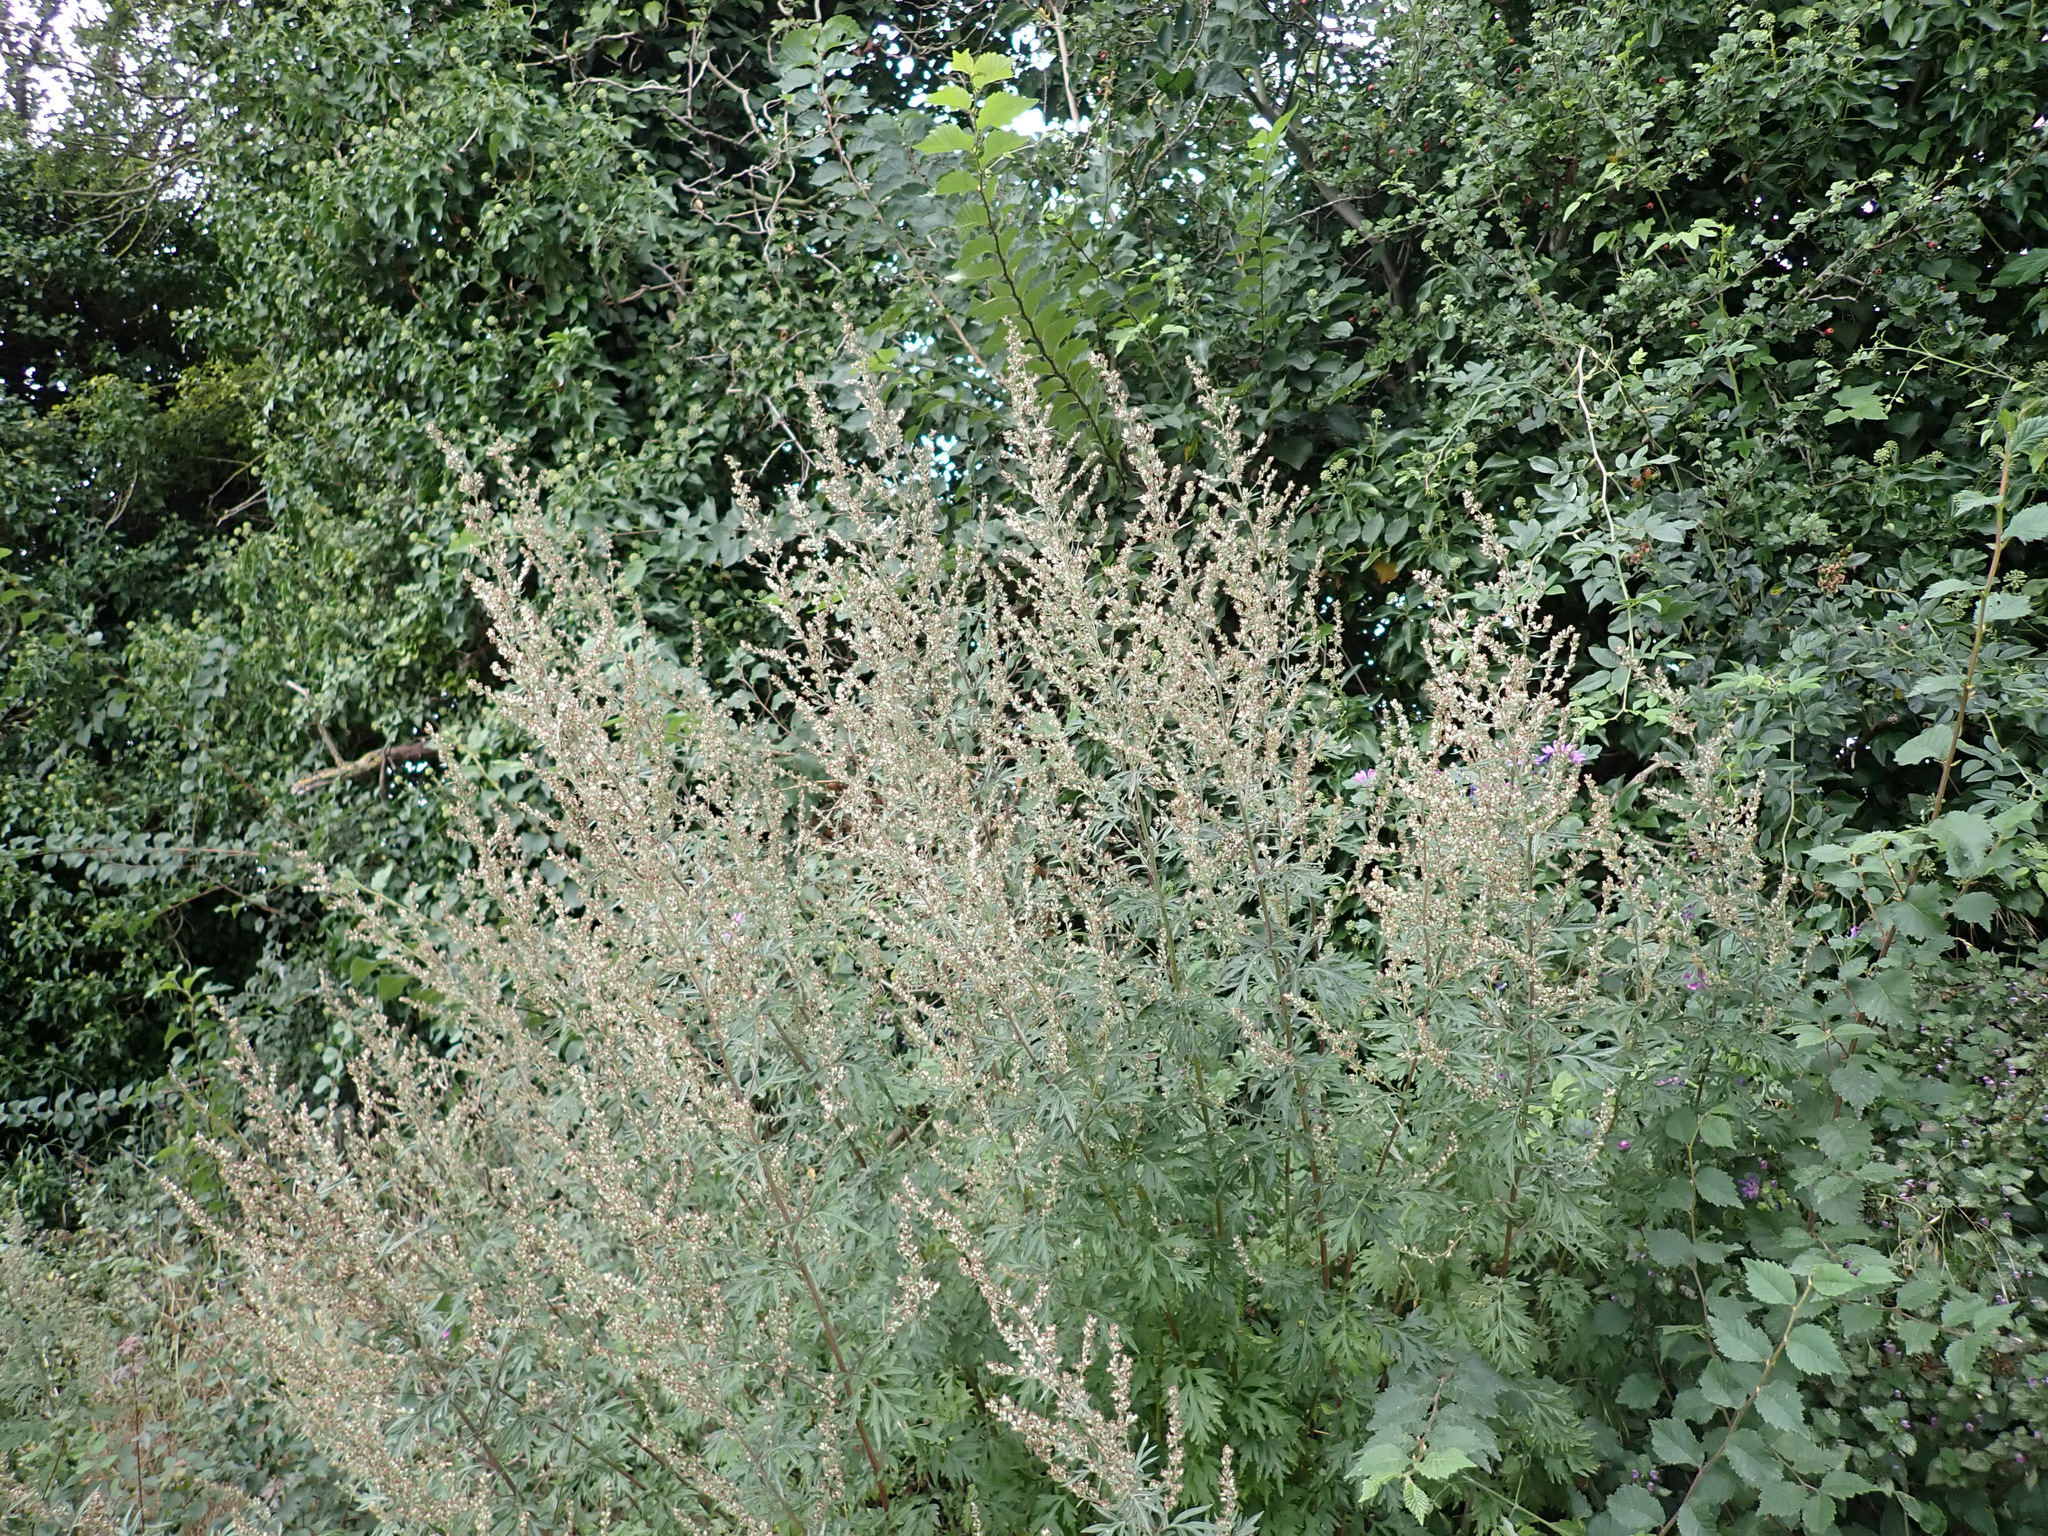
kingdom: Plantae
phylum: Tracheophyta
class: Magnoliopsida
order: Asterales
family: Asteraceae
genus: Artemisia
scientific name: Artemisia vulgaris
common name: Mugwort
